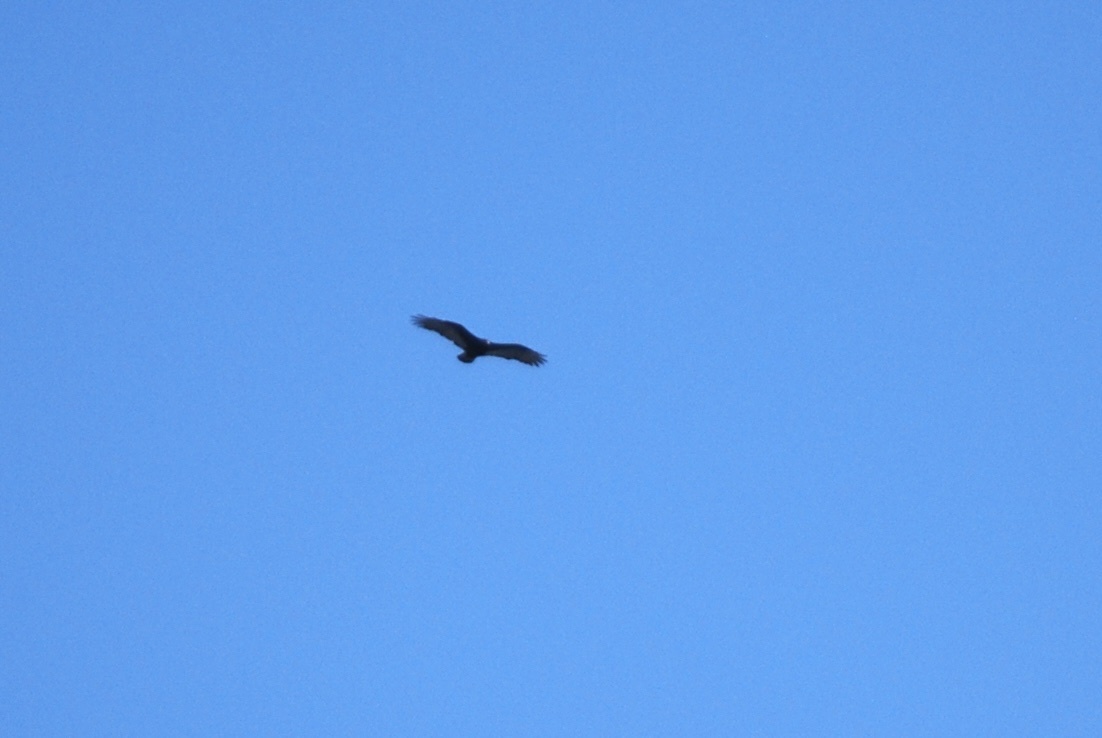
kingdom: Animalia
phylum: Chordata
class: Aves
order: Accipitriformes
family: Cathartidae
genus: Cathartes
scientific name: Cathartes aura
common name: Turkey vulture
